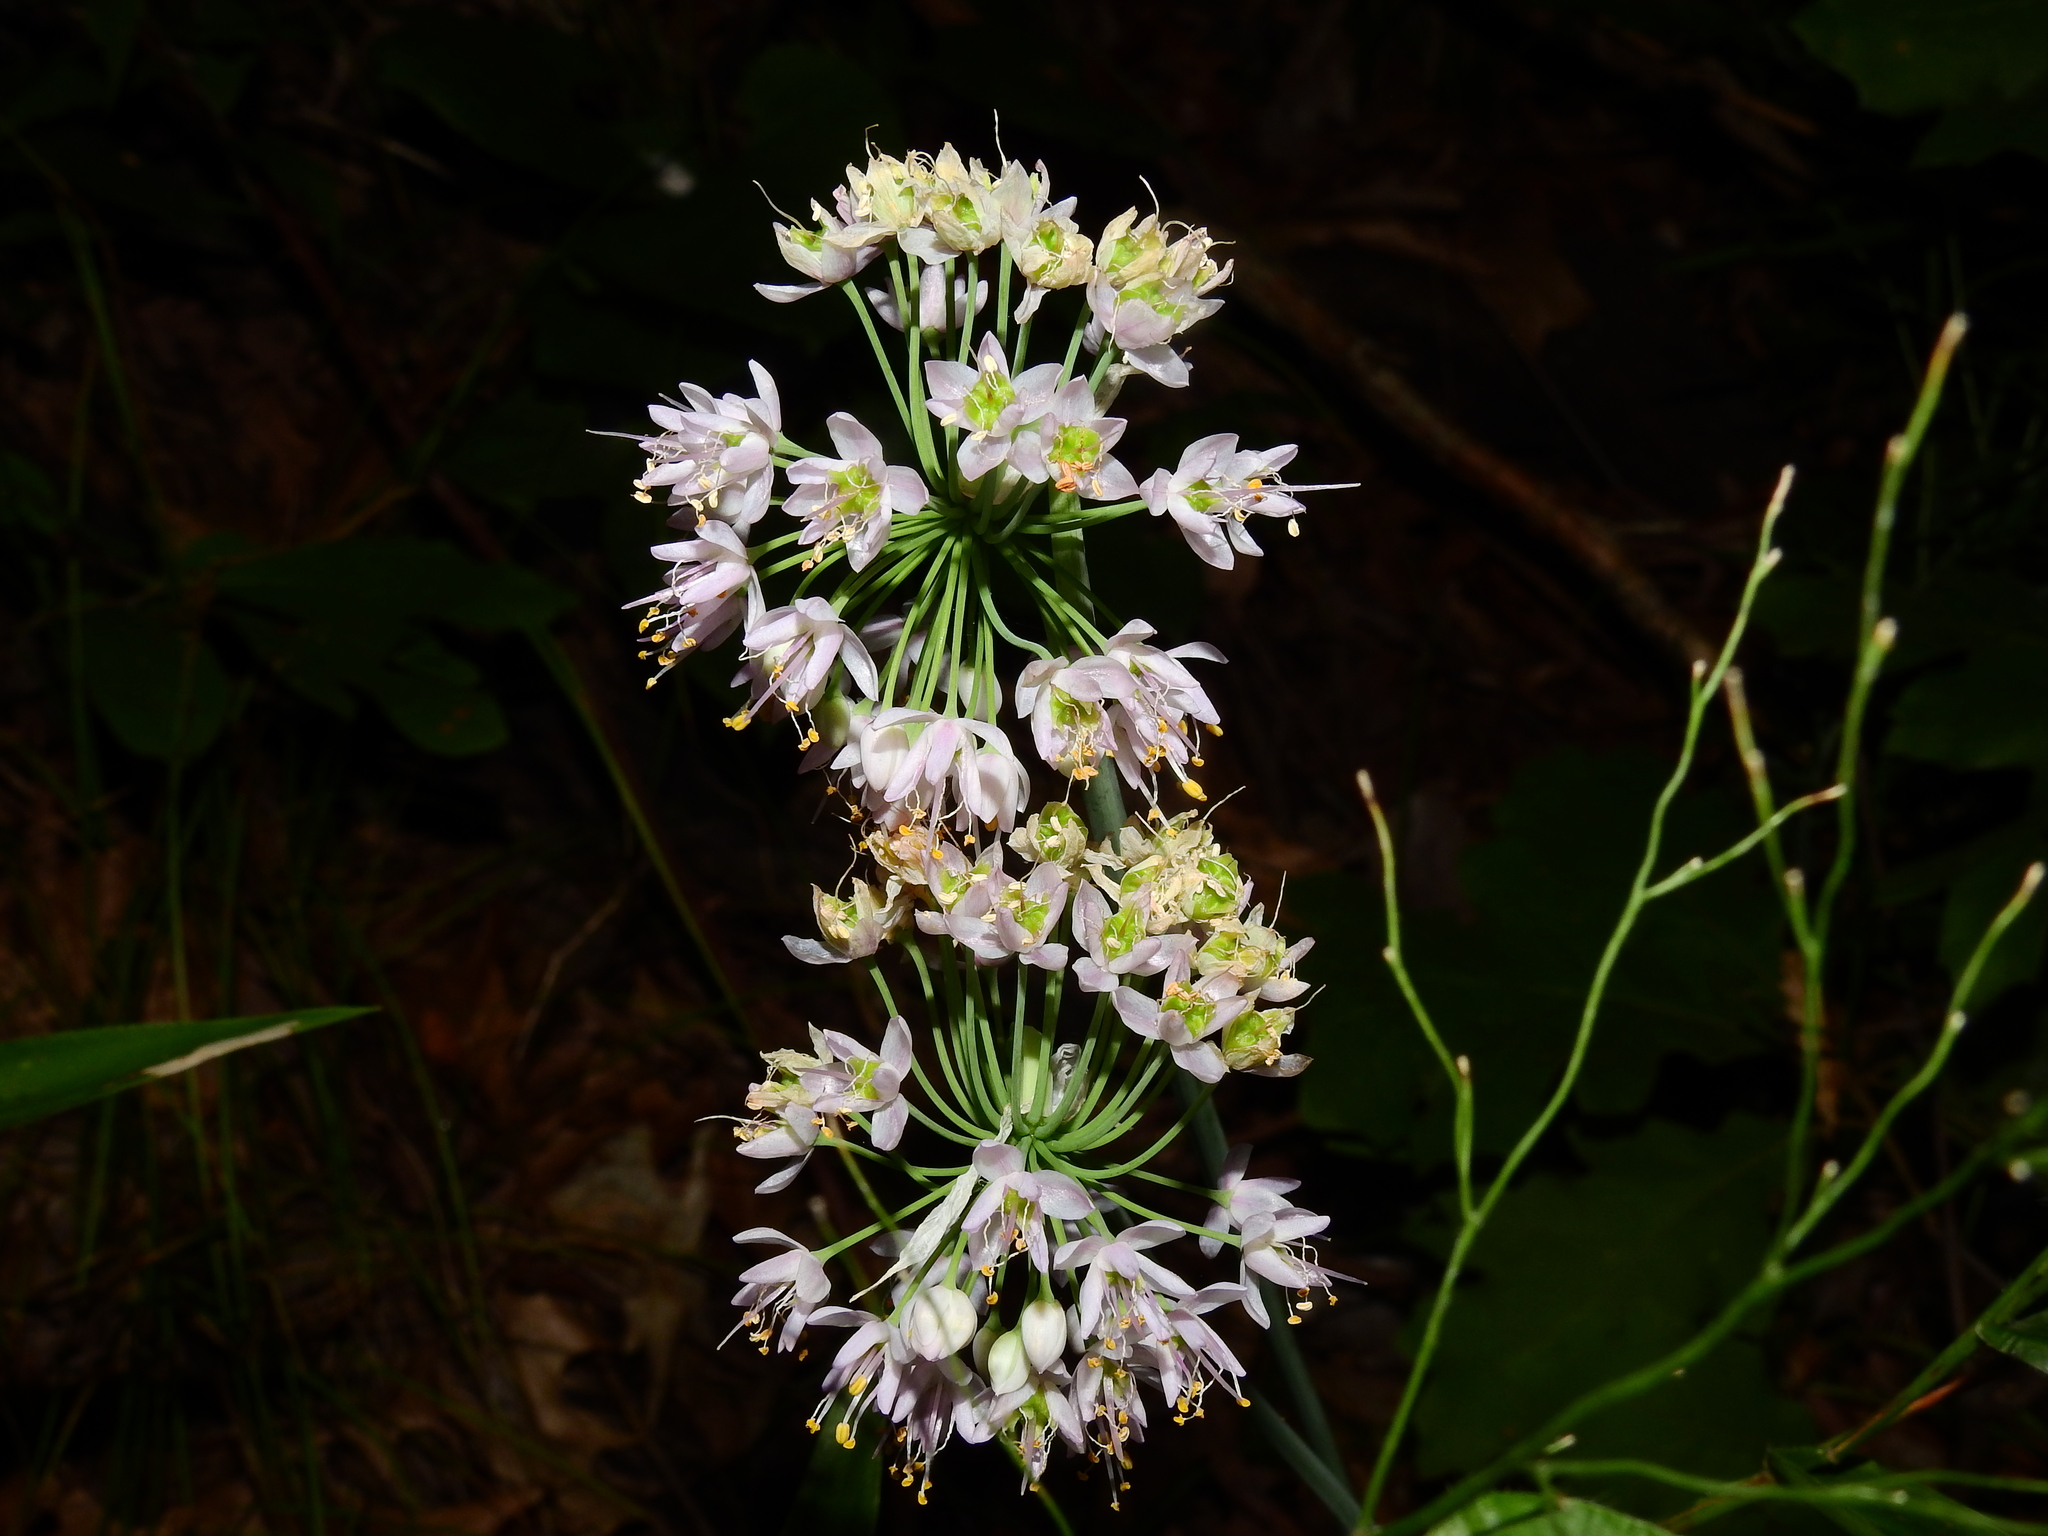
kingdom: Plantae
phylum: Tracheophyta
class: Liliopsida
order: Asparagales
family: Amaryllidaceae
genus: Allium
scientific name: Allium cernuum
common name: Nodding onion
